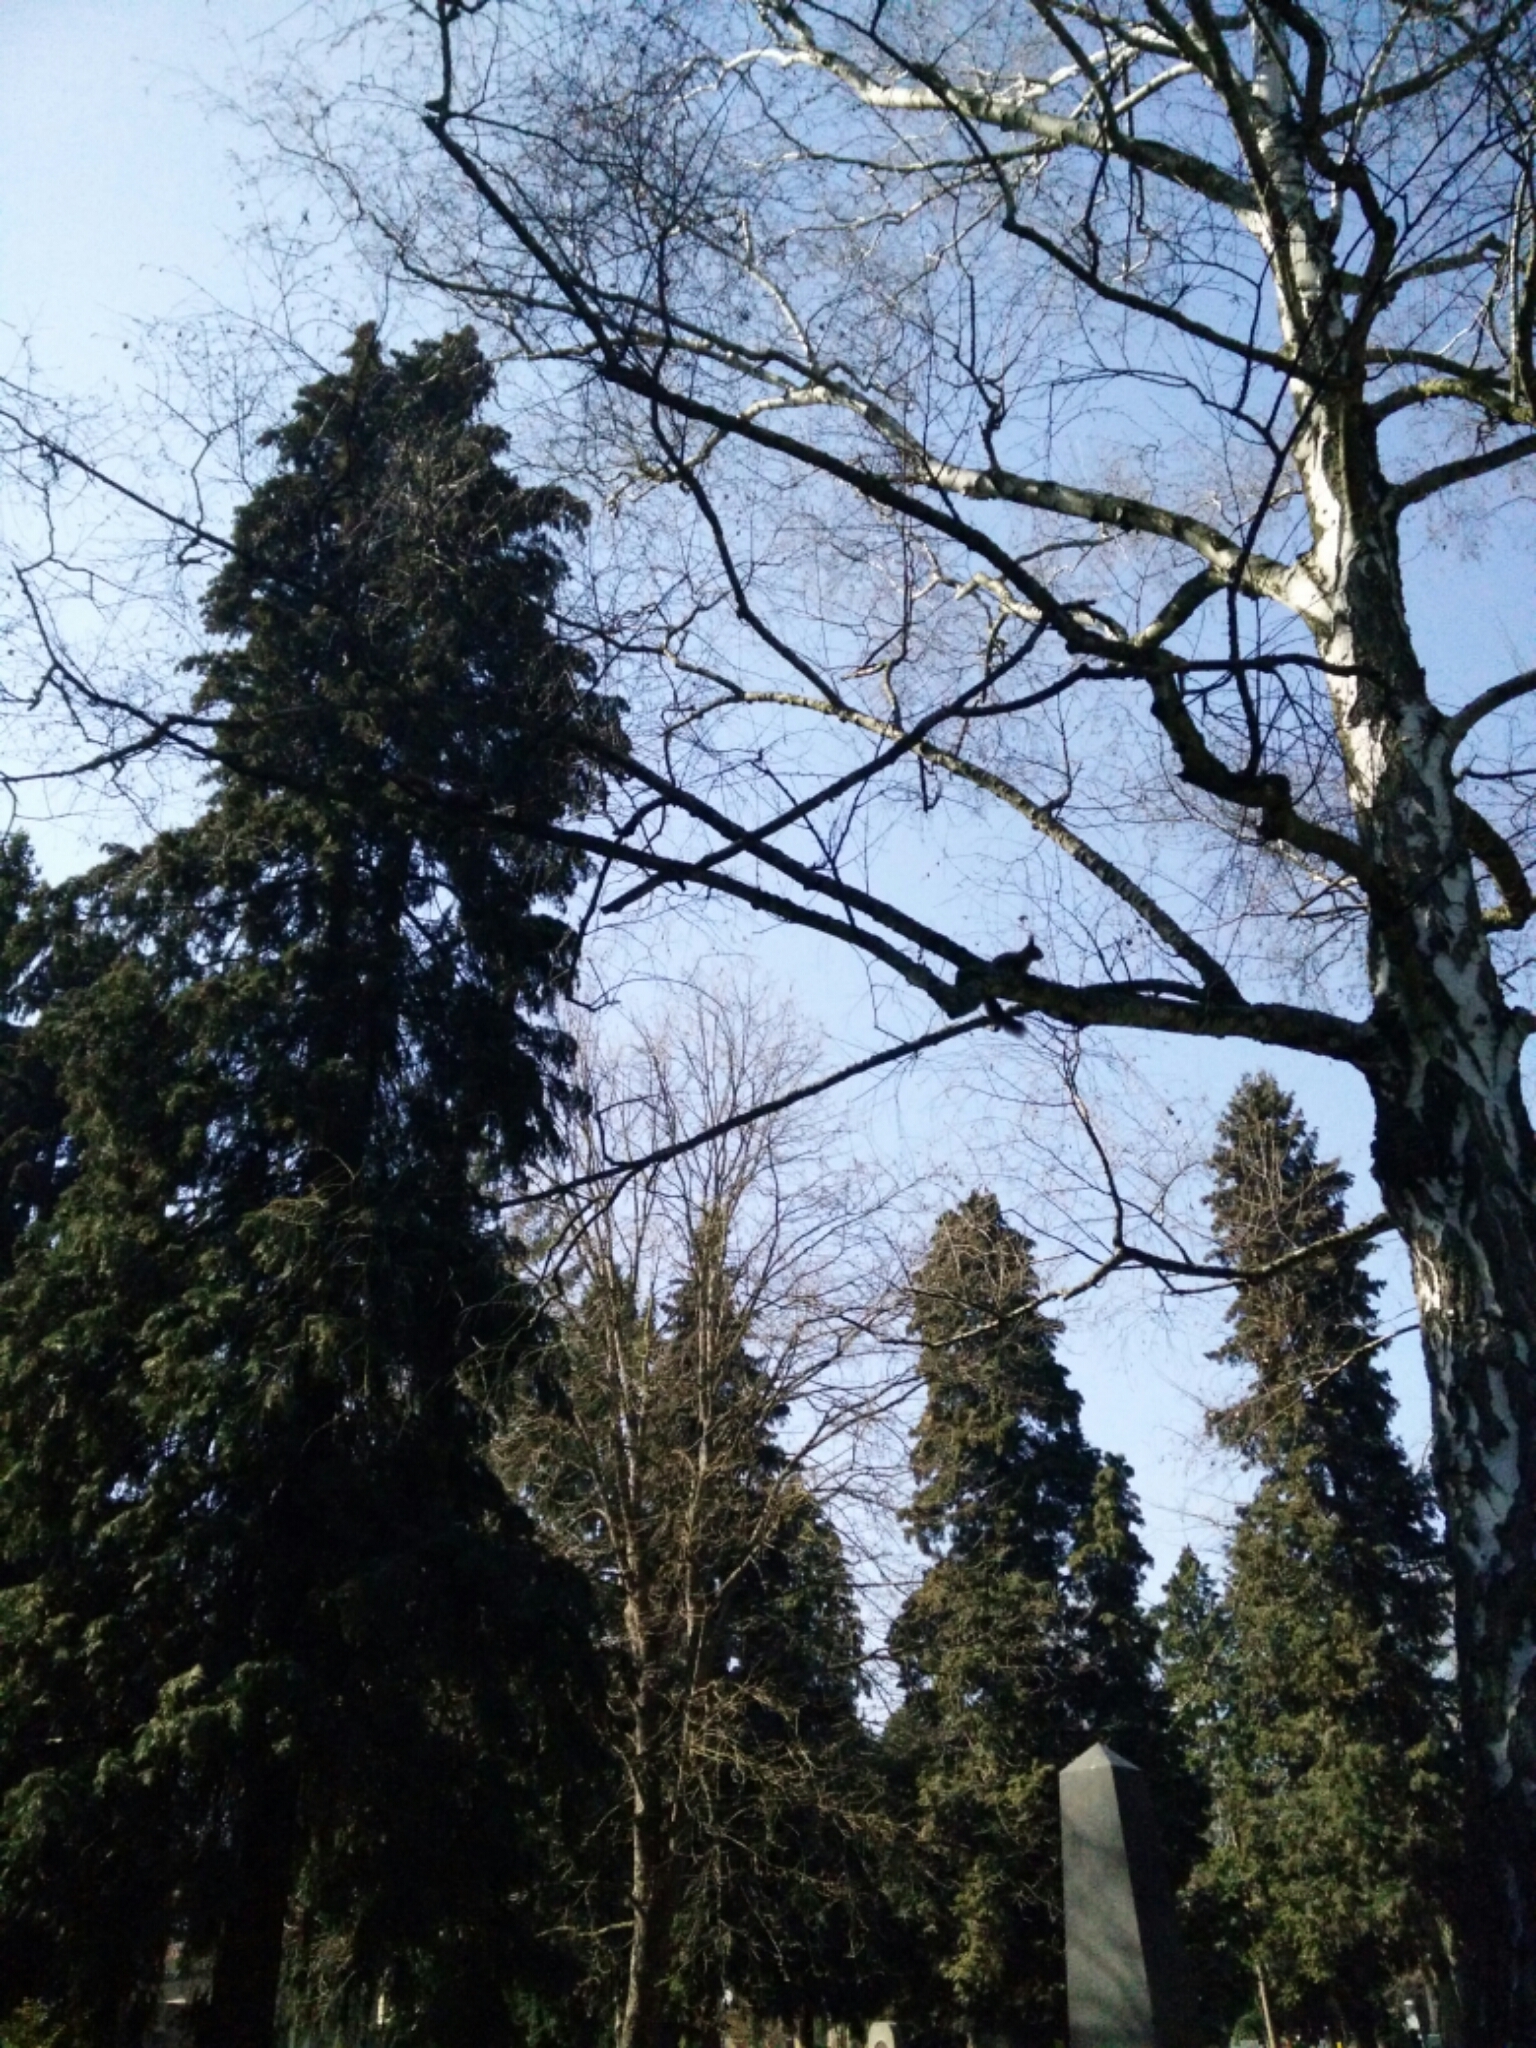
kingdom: Animalia
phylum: Chordata
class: Mammalia
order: Rodentia
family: Sciuridae
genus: Sciurus
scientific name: Sciurus vulgaris
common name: Eurasian red squirrel
